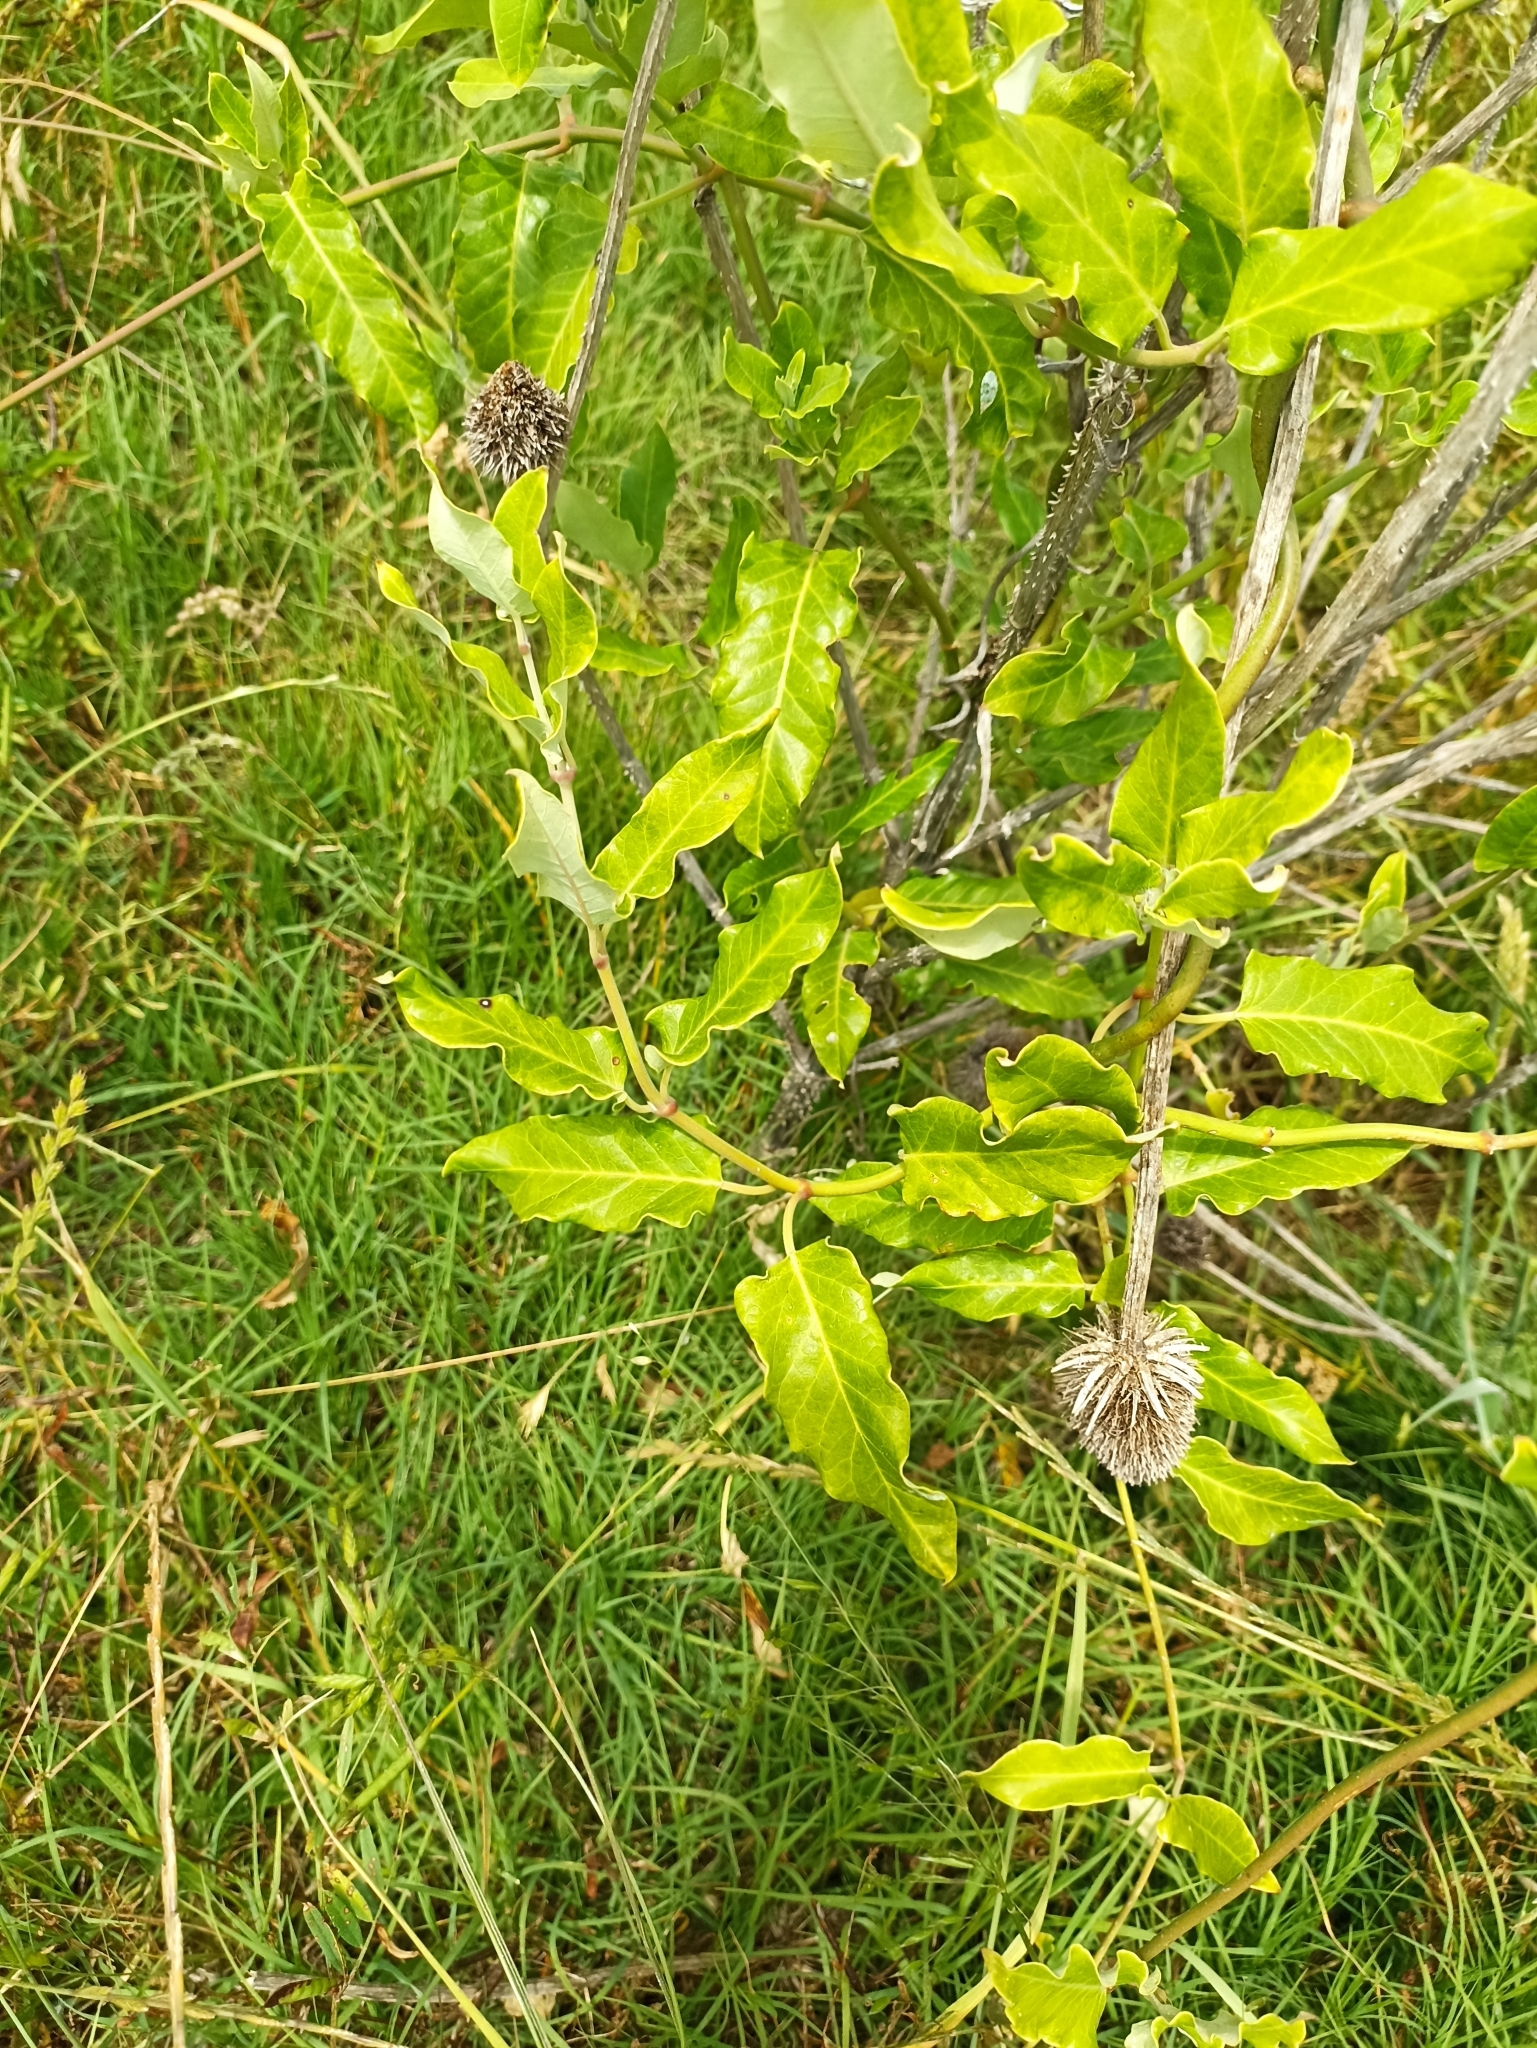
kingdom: Plantae
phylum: Tracheophyta
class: Magnoliopsida
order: Gentianales
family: Apocynaceae
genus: Araujia
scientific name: Araujia sericifera
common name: White bladderflower
